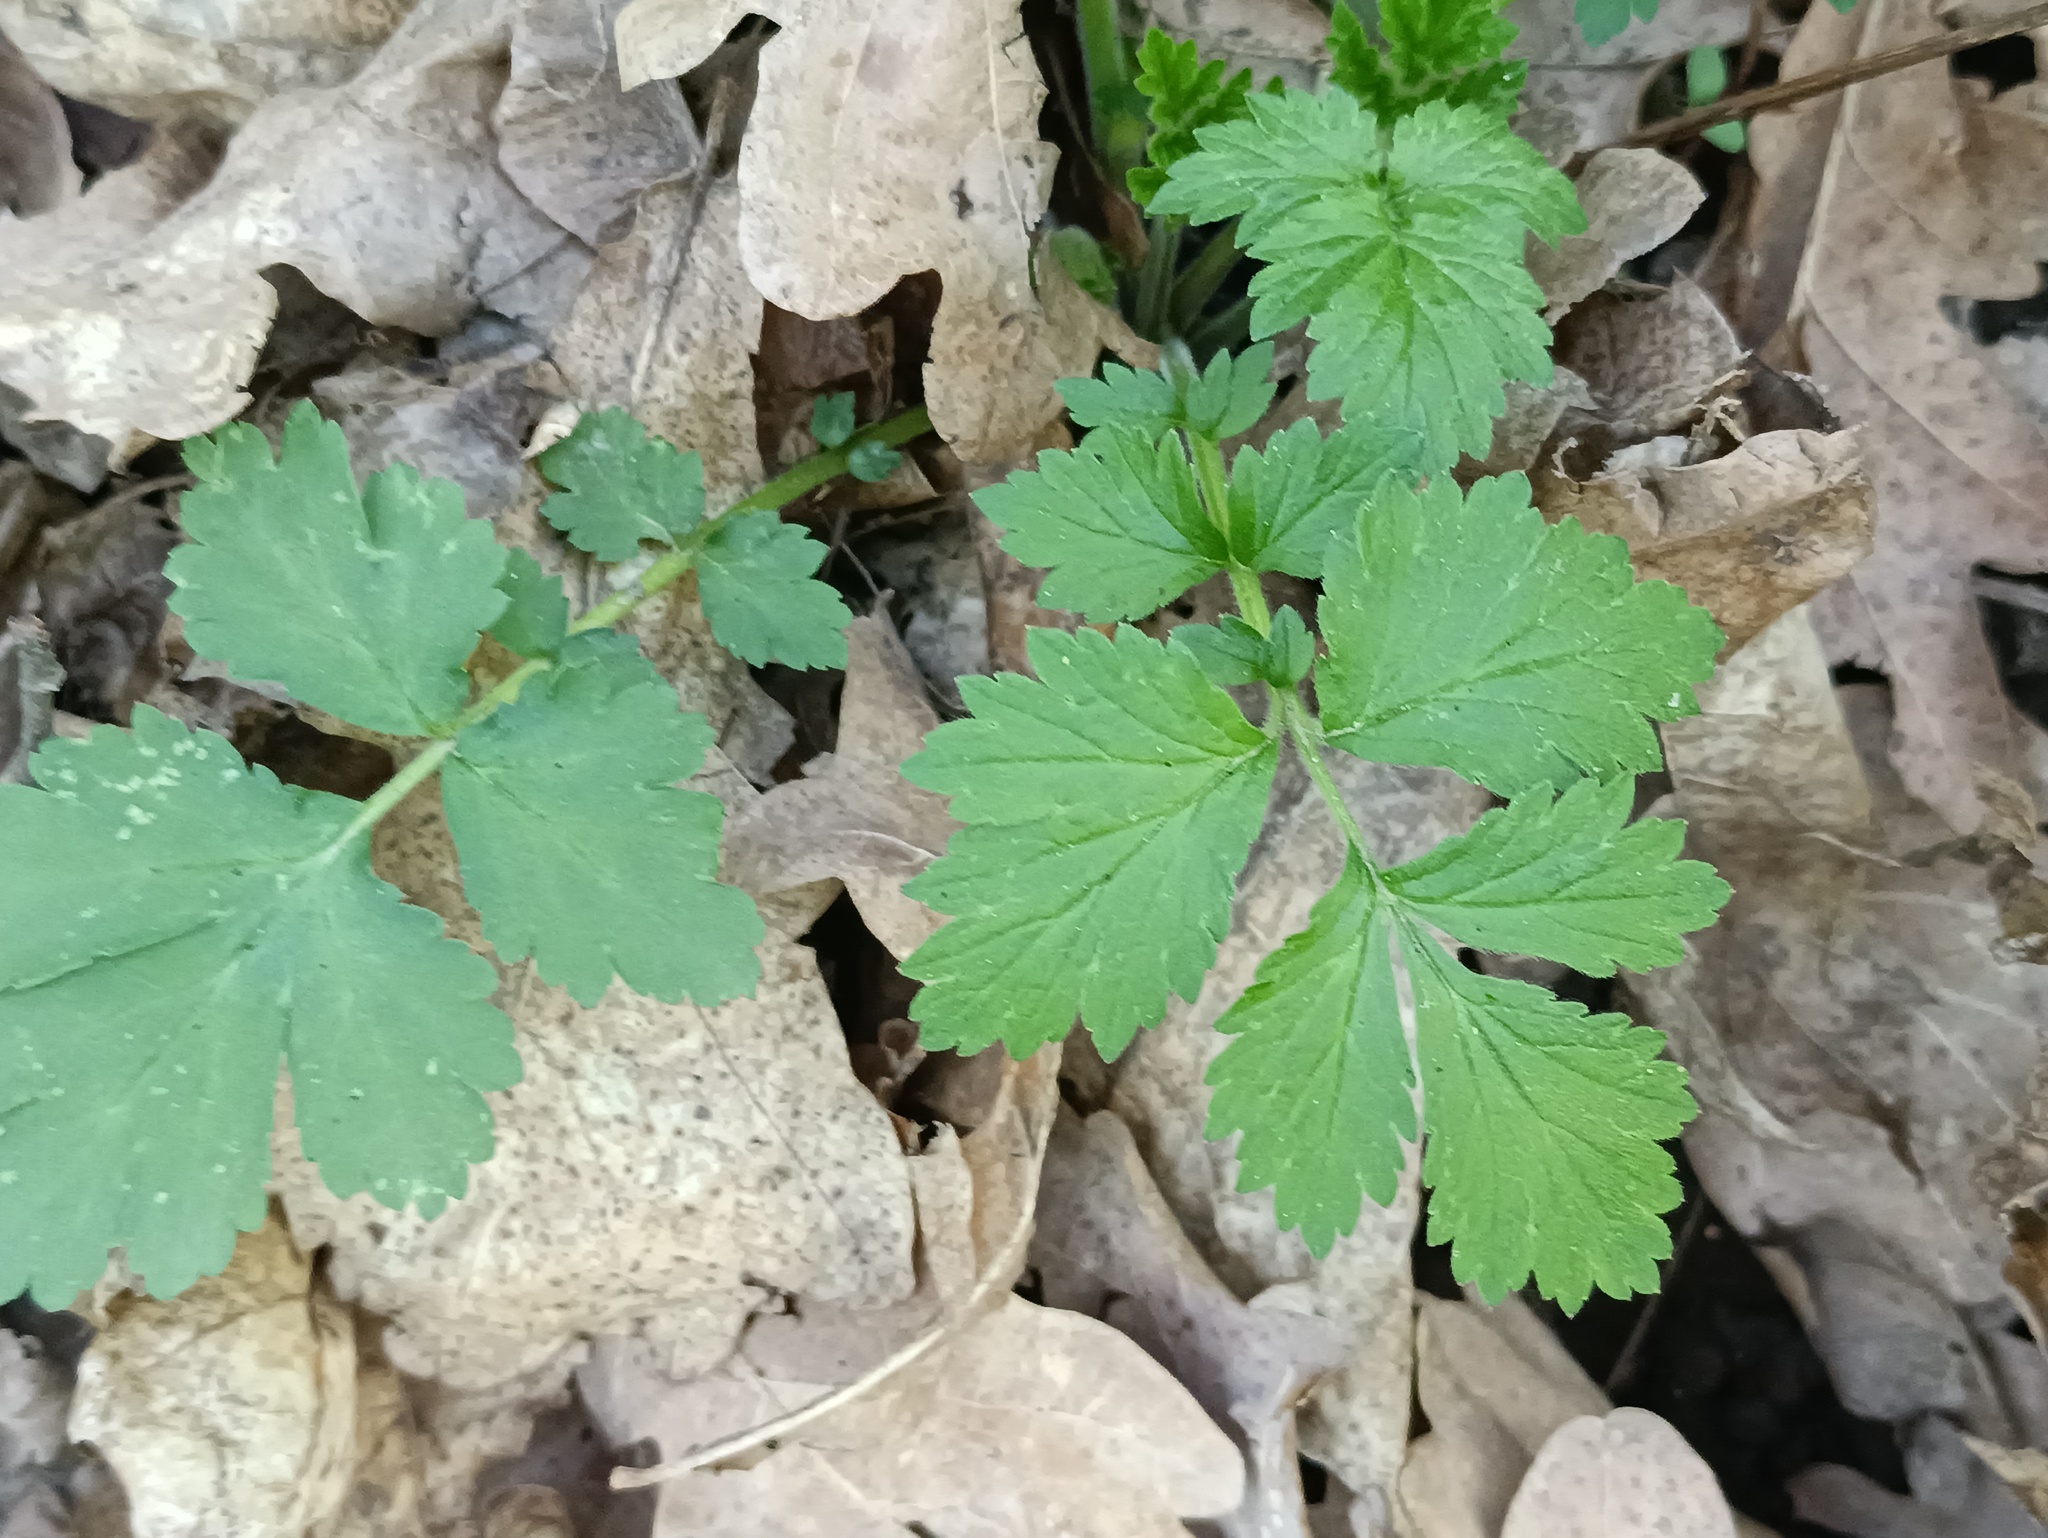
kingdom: Plantae
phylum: Tracheophyta
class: Magnoliopsida
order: Rosales
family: Rosaceae
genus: Geum
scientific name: Geum urbanum
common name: Wood avens
